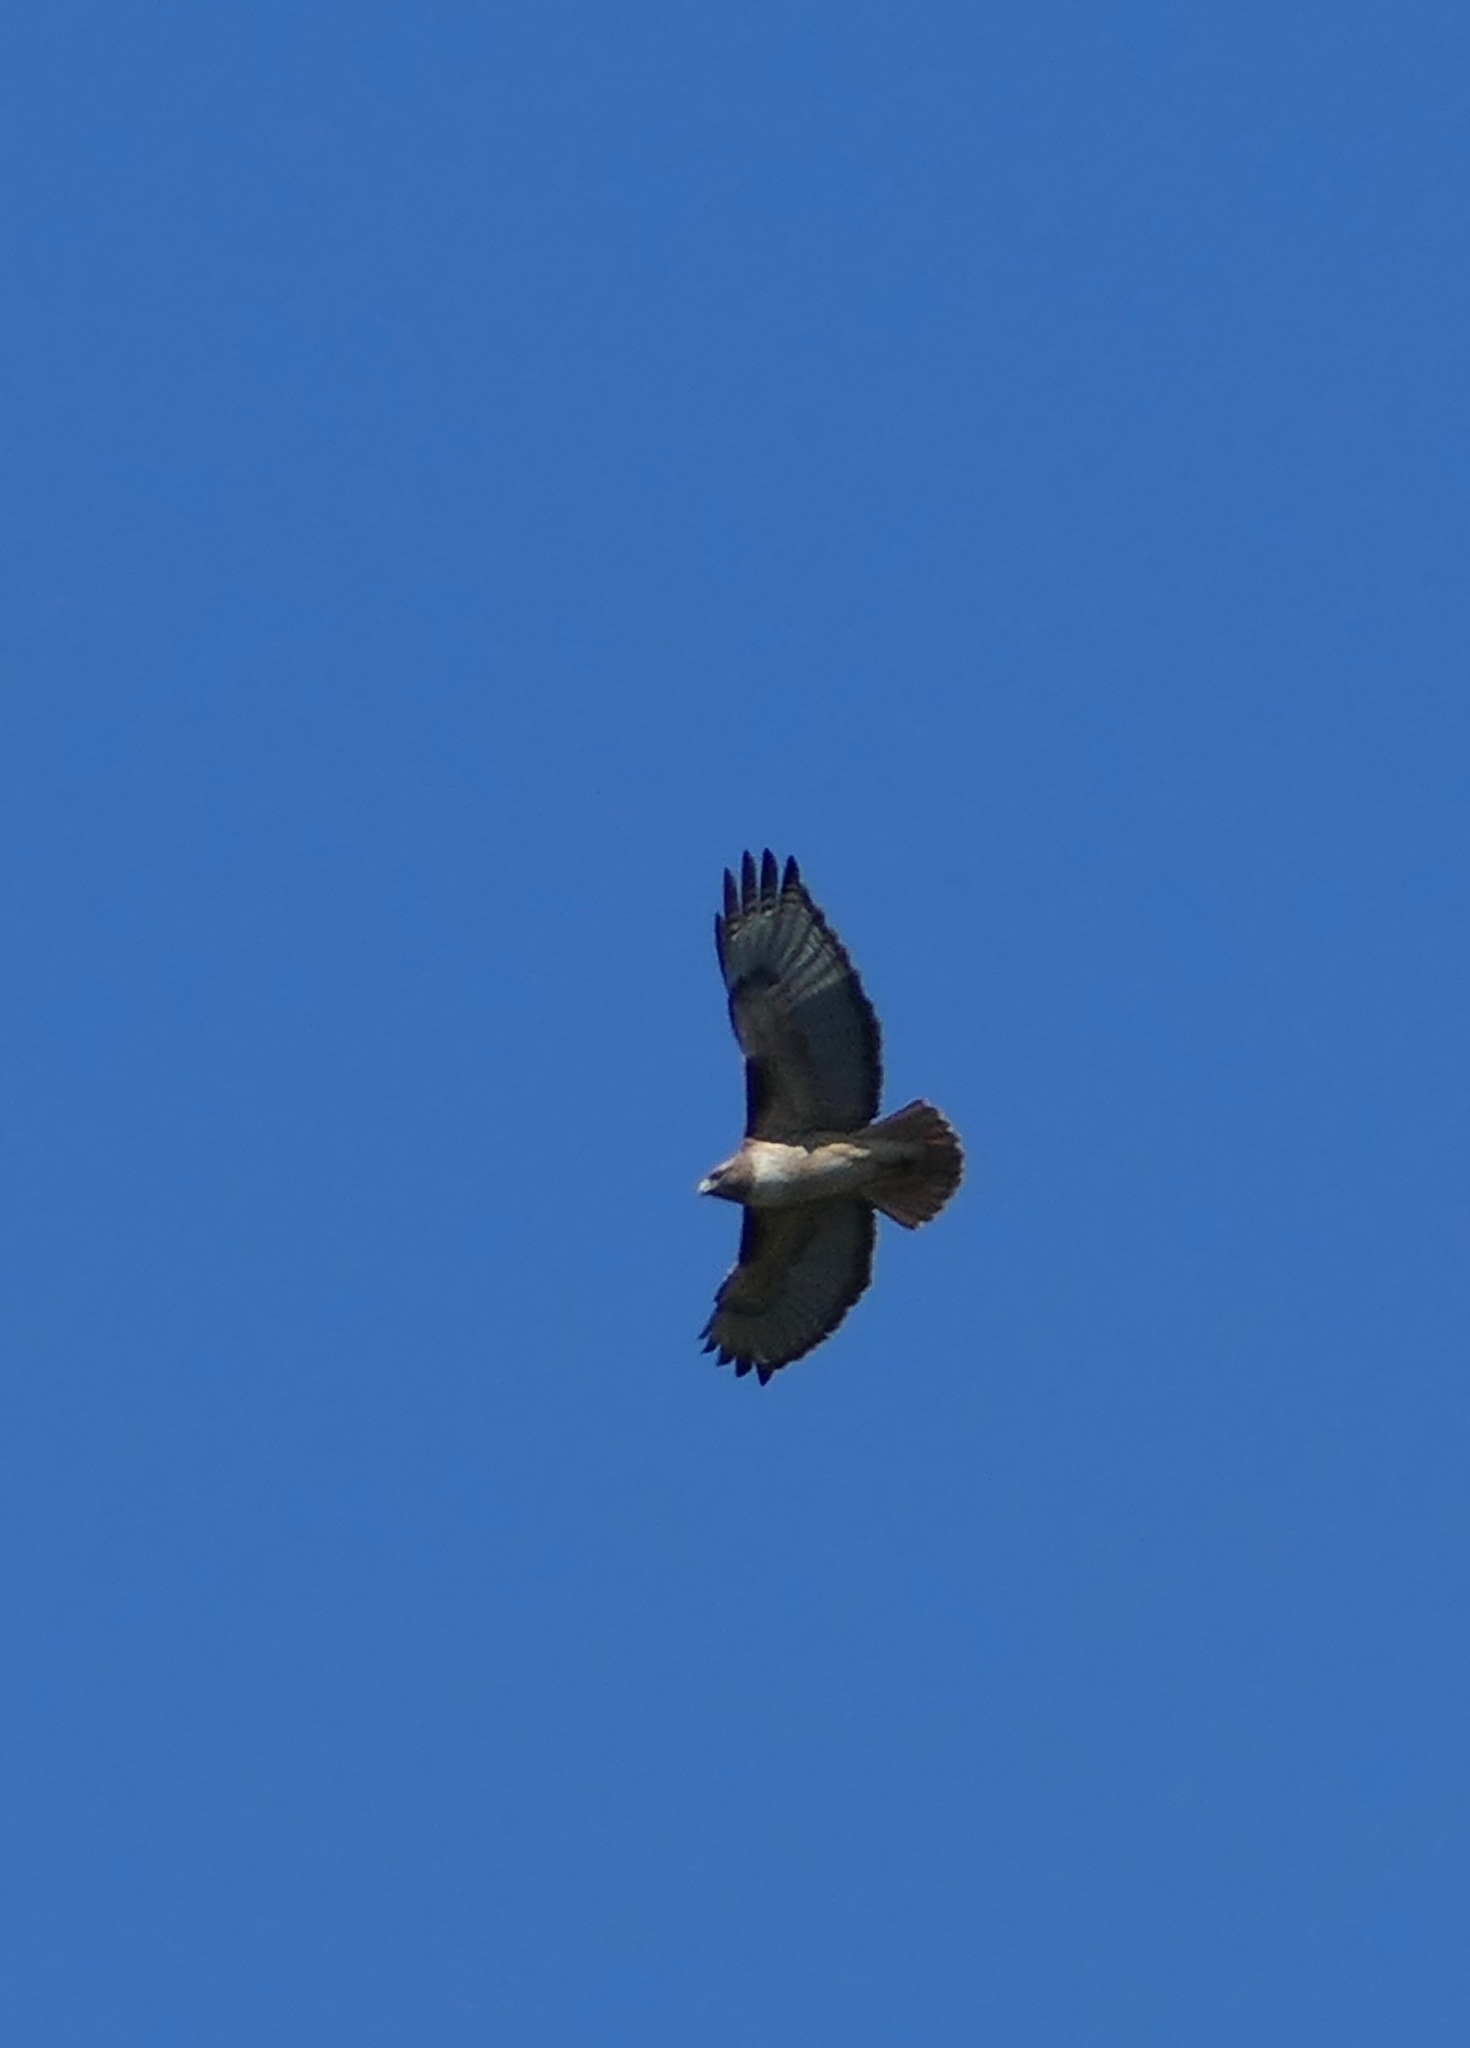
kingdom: Animalia
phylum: Chordata
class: Aves
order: Accipitriformes
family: Accipitridae
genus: Buteo
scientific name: Buteo jamaicensis
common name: Red-tailed hawk
